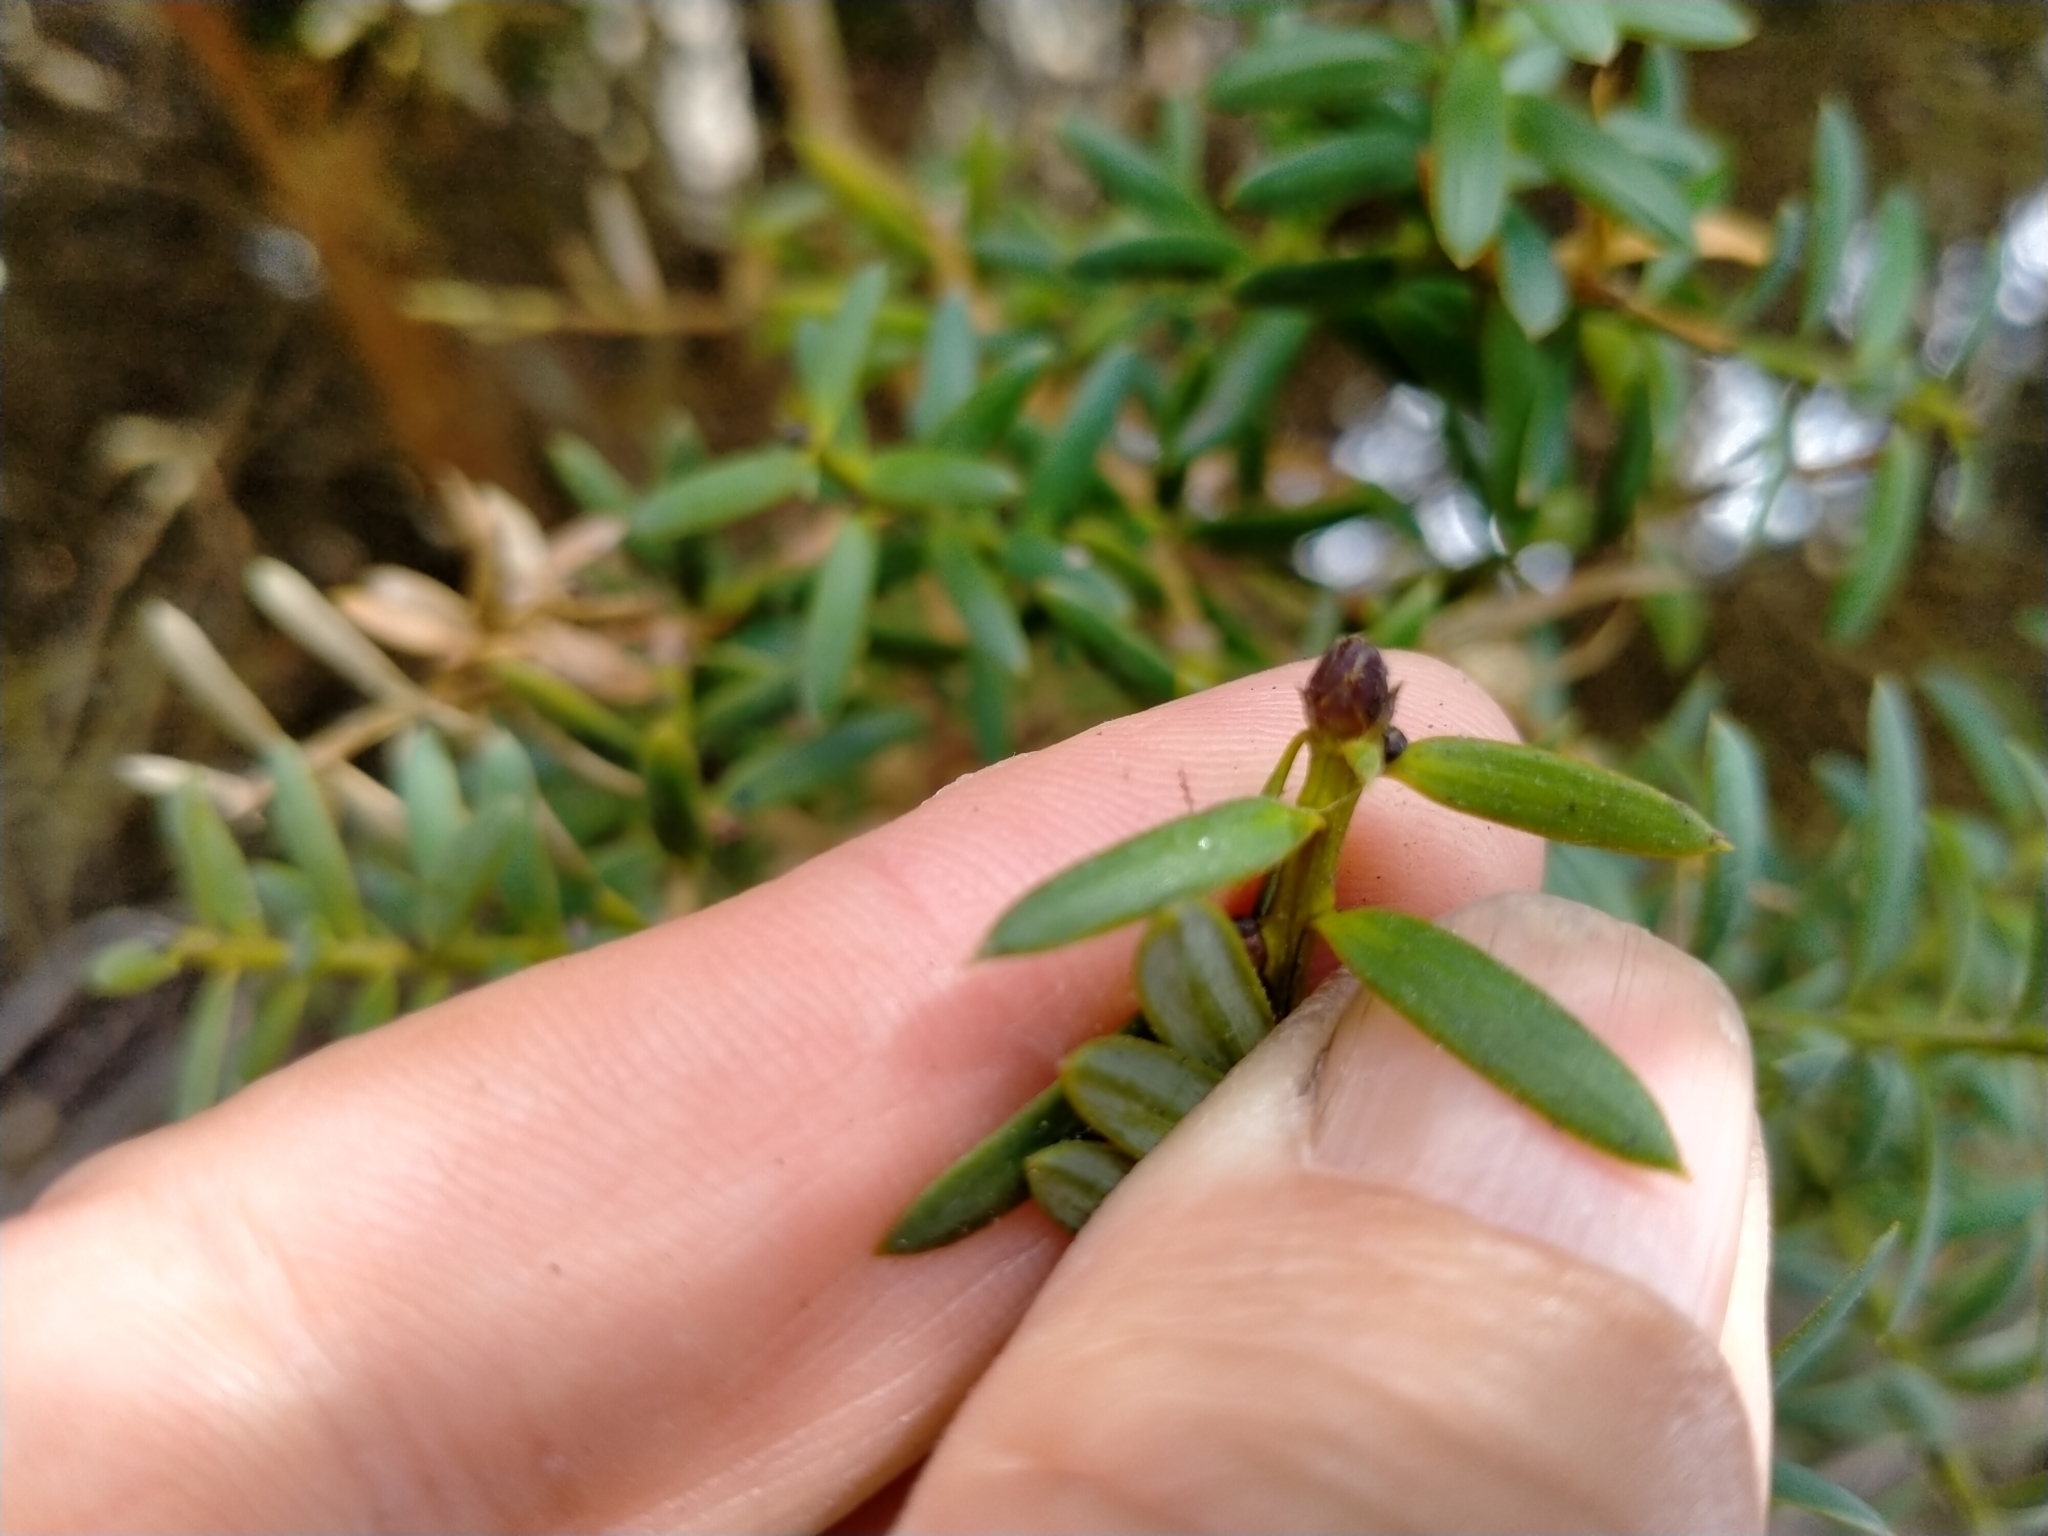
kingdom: Plantae
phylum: Tracheophyta
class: Pinopsida
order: Pinales
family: Podocarpaceae
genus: Podocarpus
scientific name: Podocarpus laetus
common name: Hall's totara
